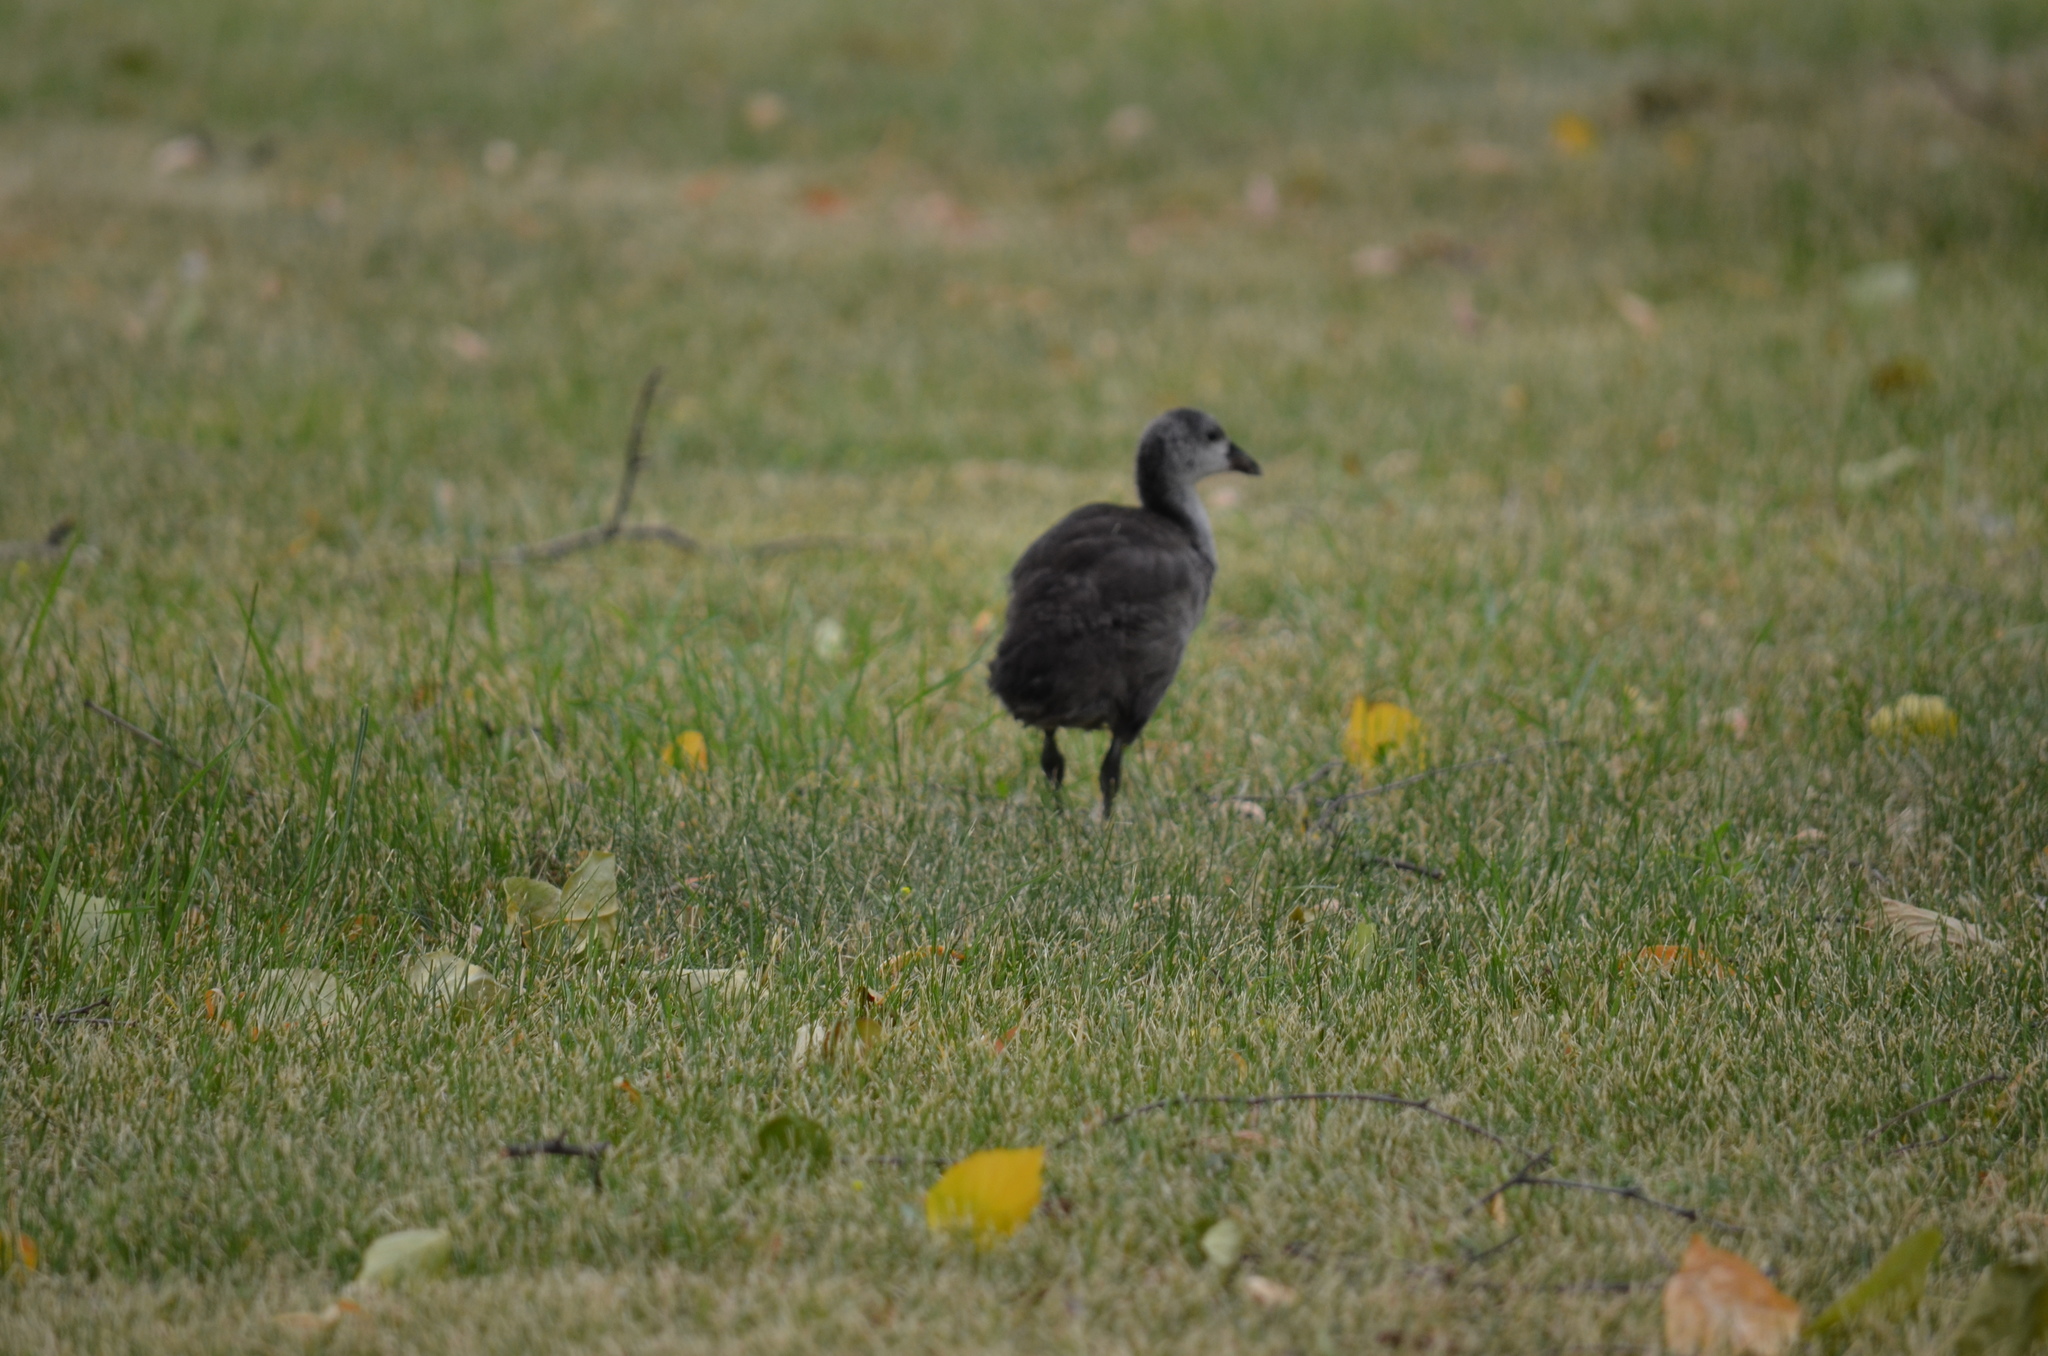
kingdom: Animalia
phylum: Chordata
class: Aves
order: Gruiformes
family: Rallidae
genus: Fulica
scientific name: Fulica americana
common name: American coot
